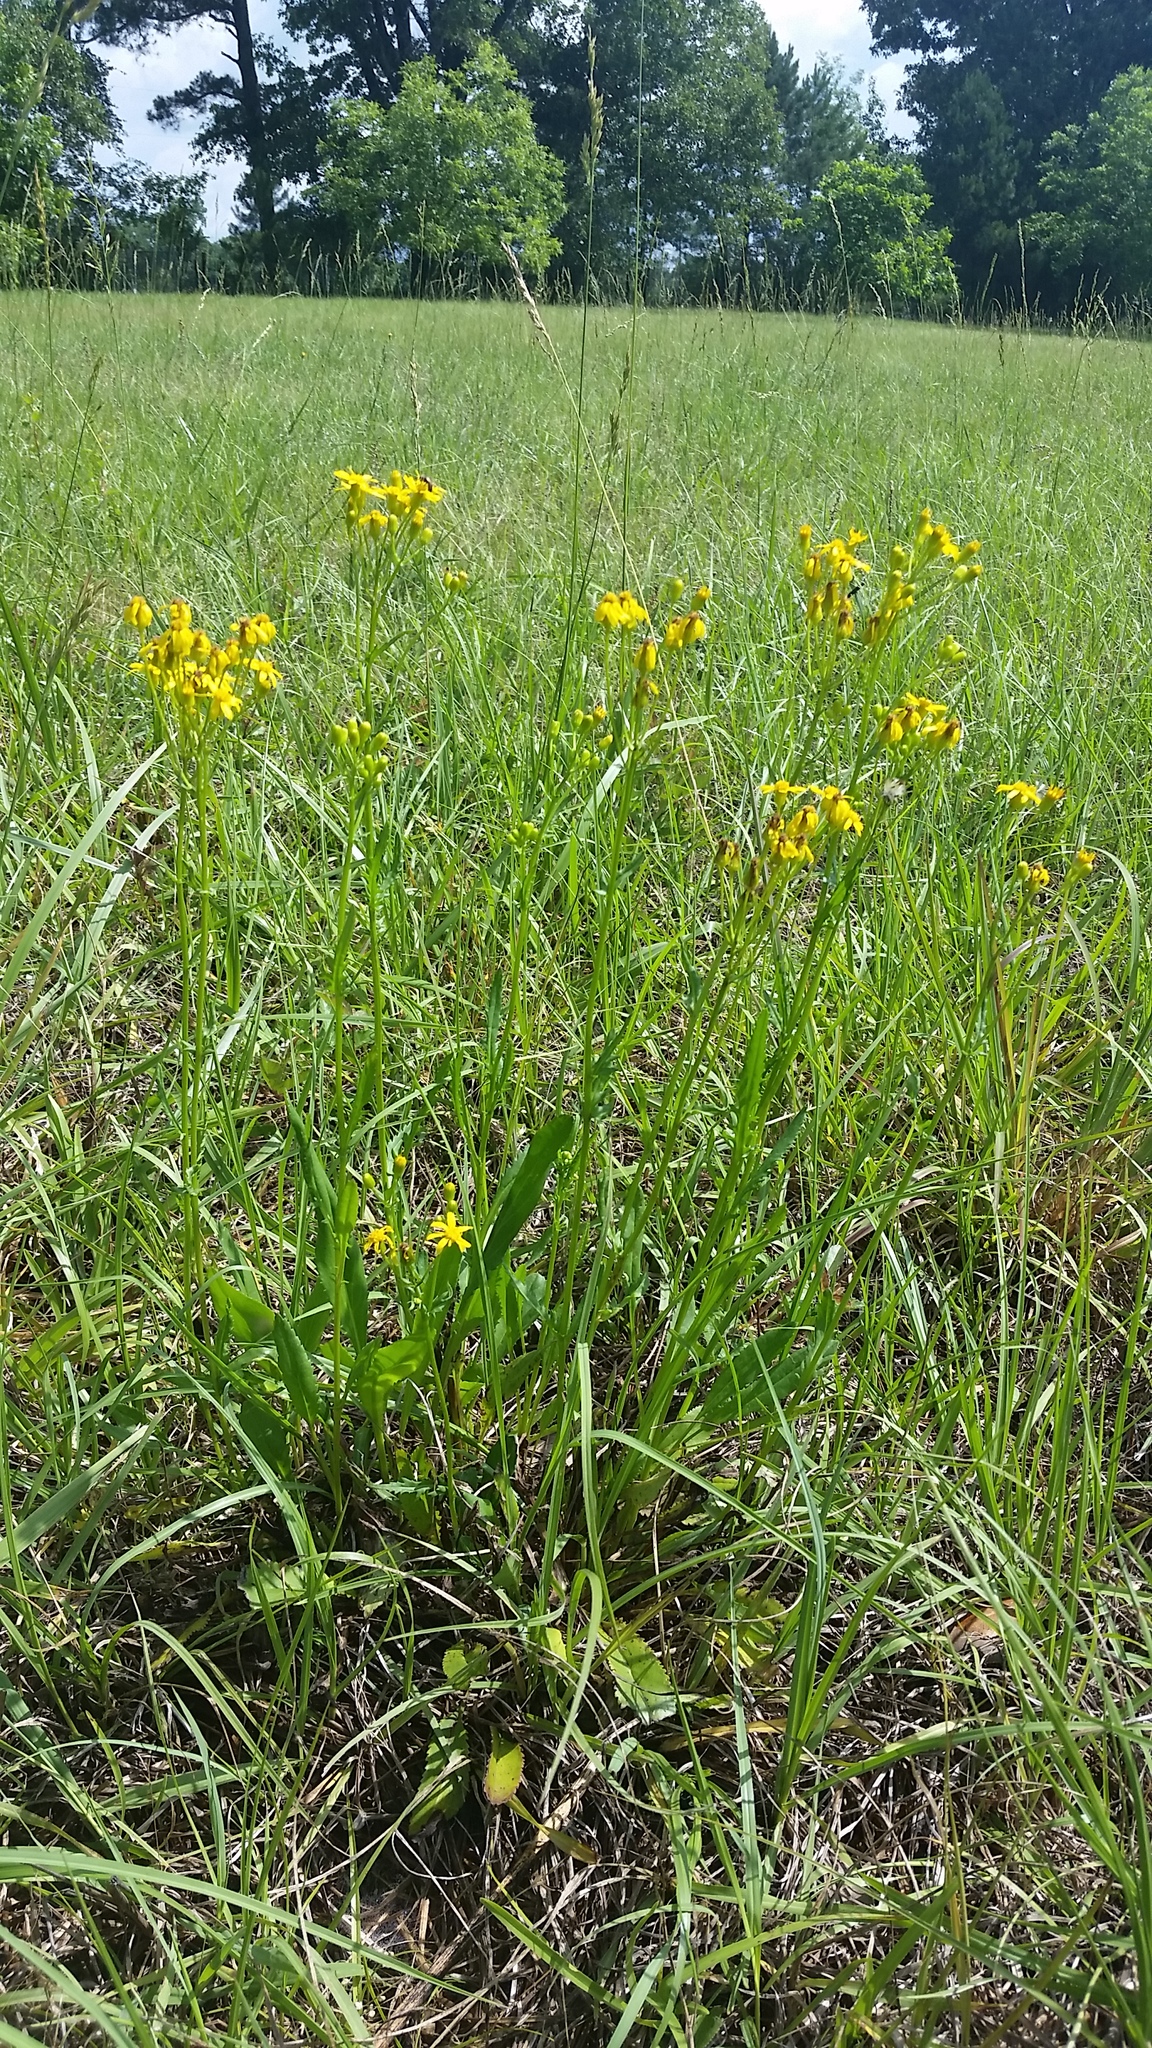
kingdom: Plantae
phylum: Tracheophyta
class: Magnoliopsida
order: Asterales
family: Asteraceae
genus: Packera
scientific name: Packera anonyma
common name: Small ragwort
